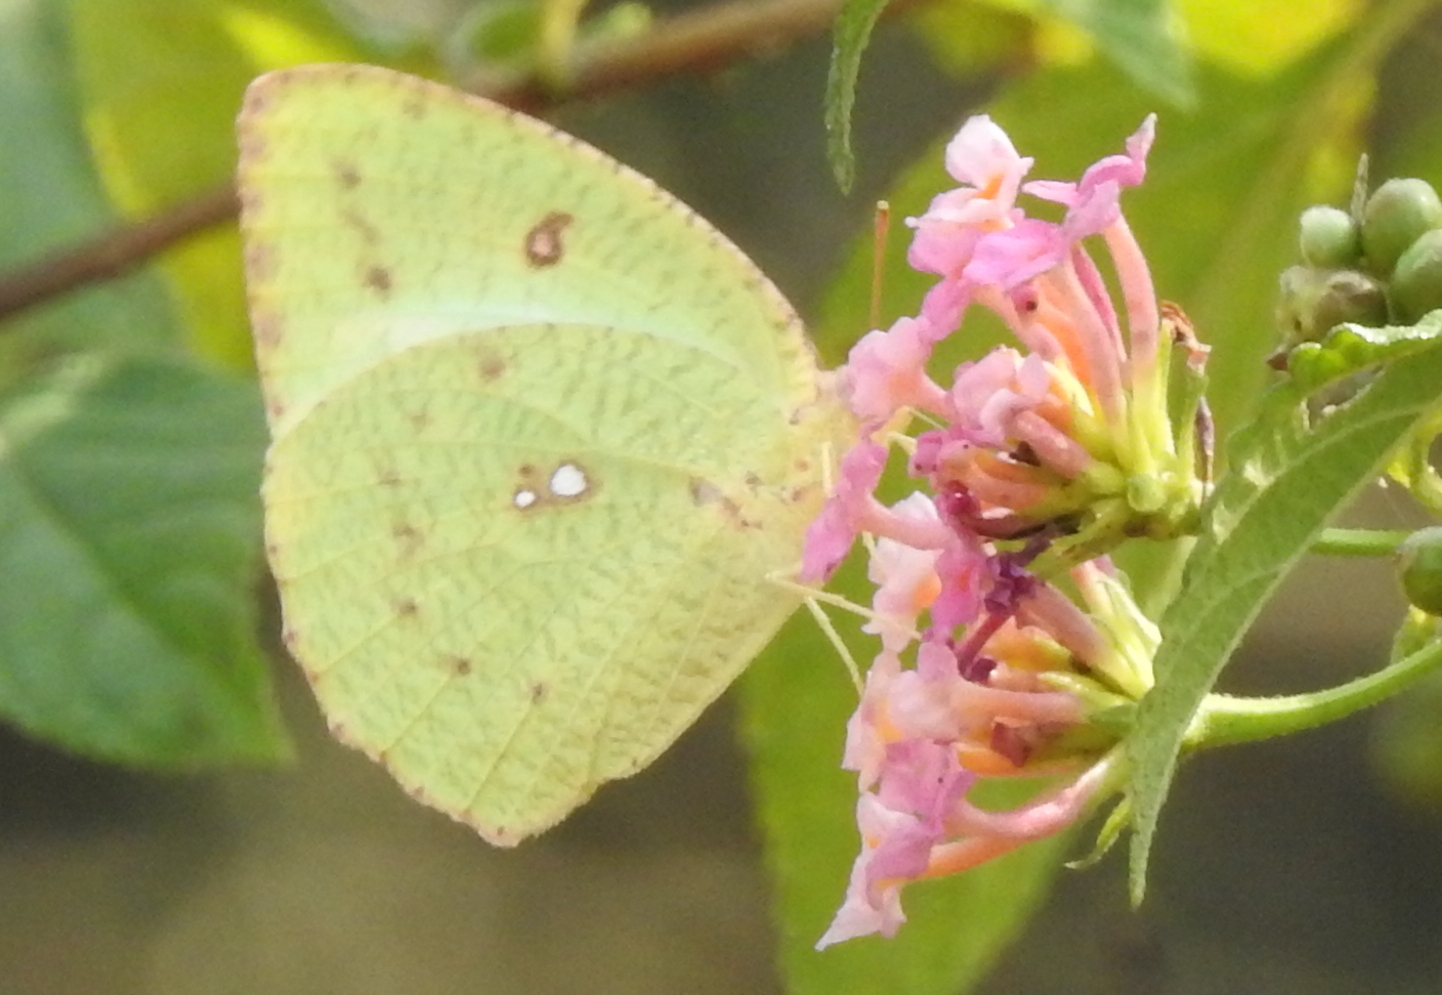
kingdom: Animalia
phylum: Arthropoda
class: Insecta
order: Lepidoptera
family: Pieridae
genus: Catopsilia
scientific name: Catopsilia pomona
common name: Common emigrant
